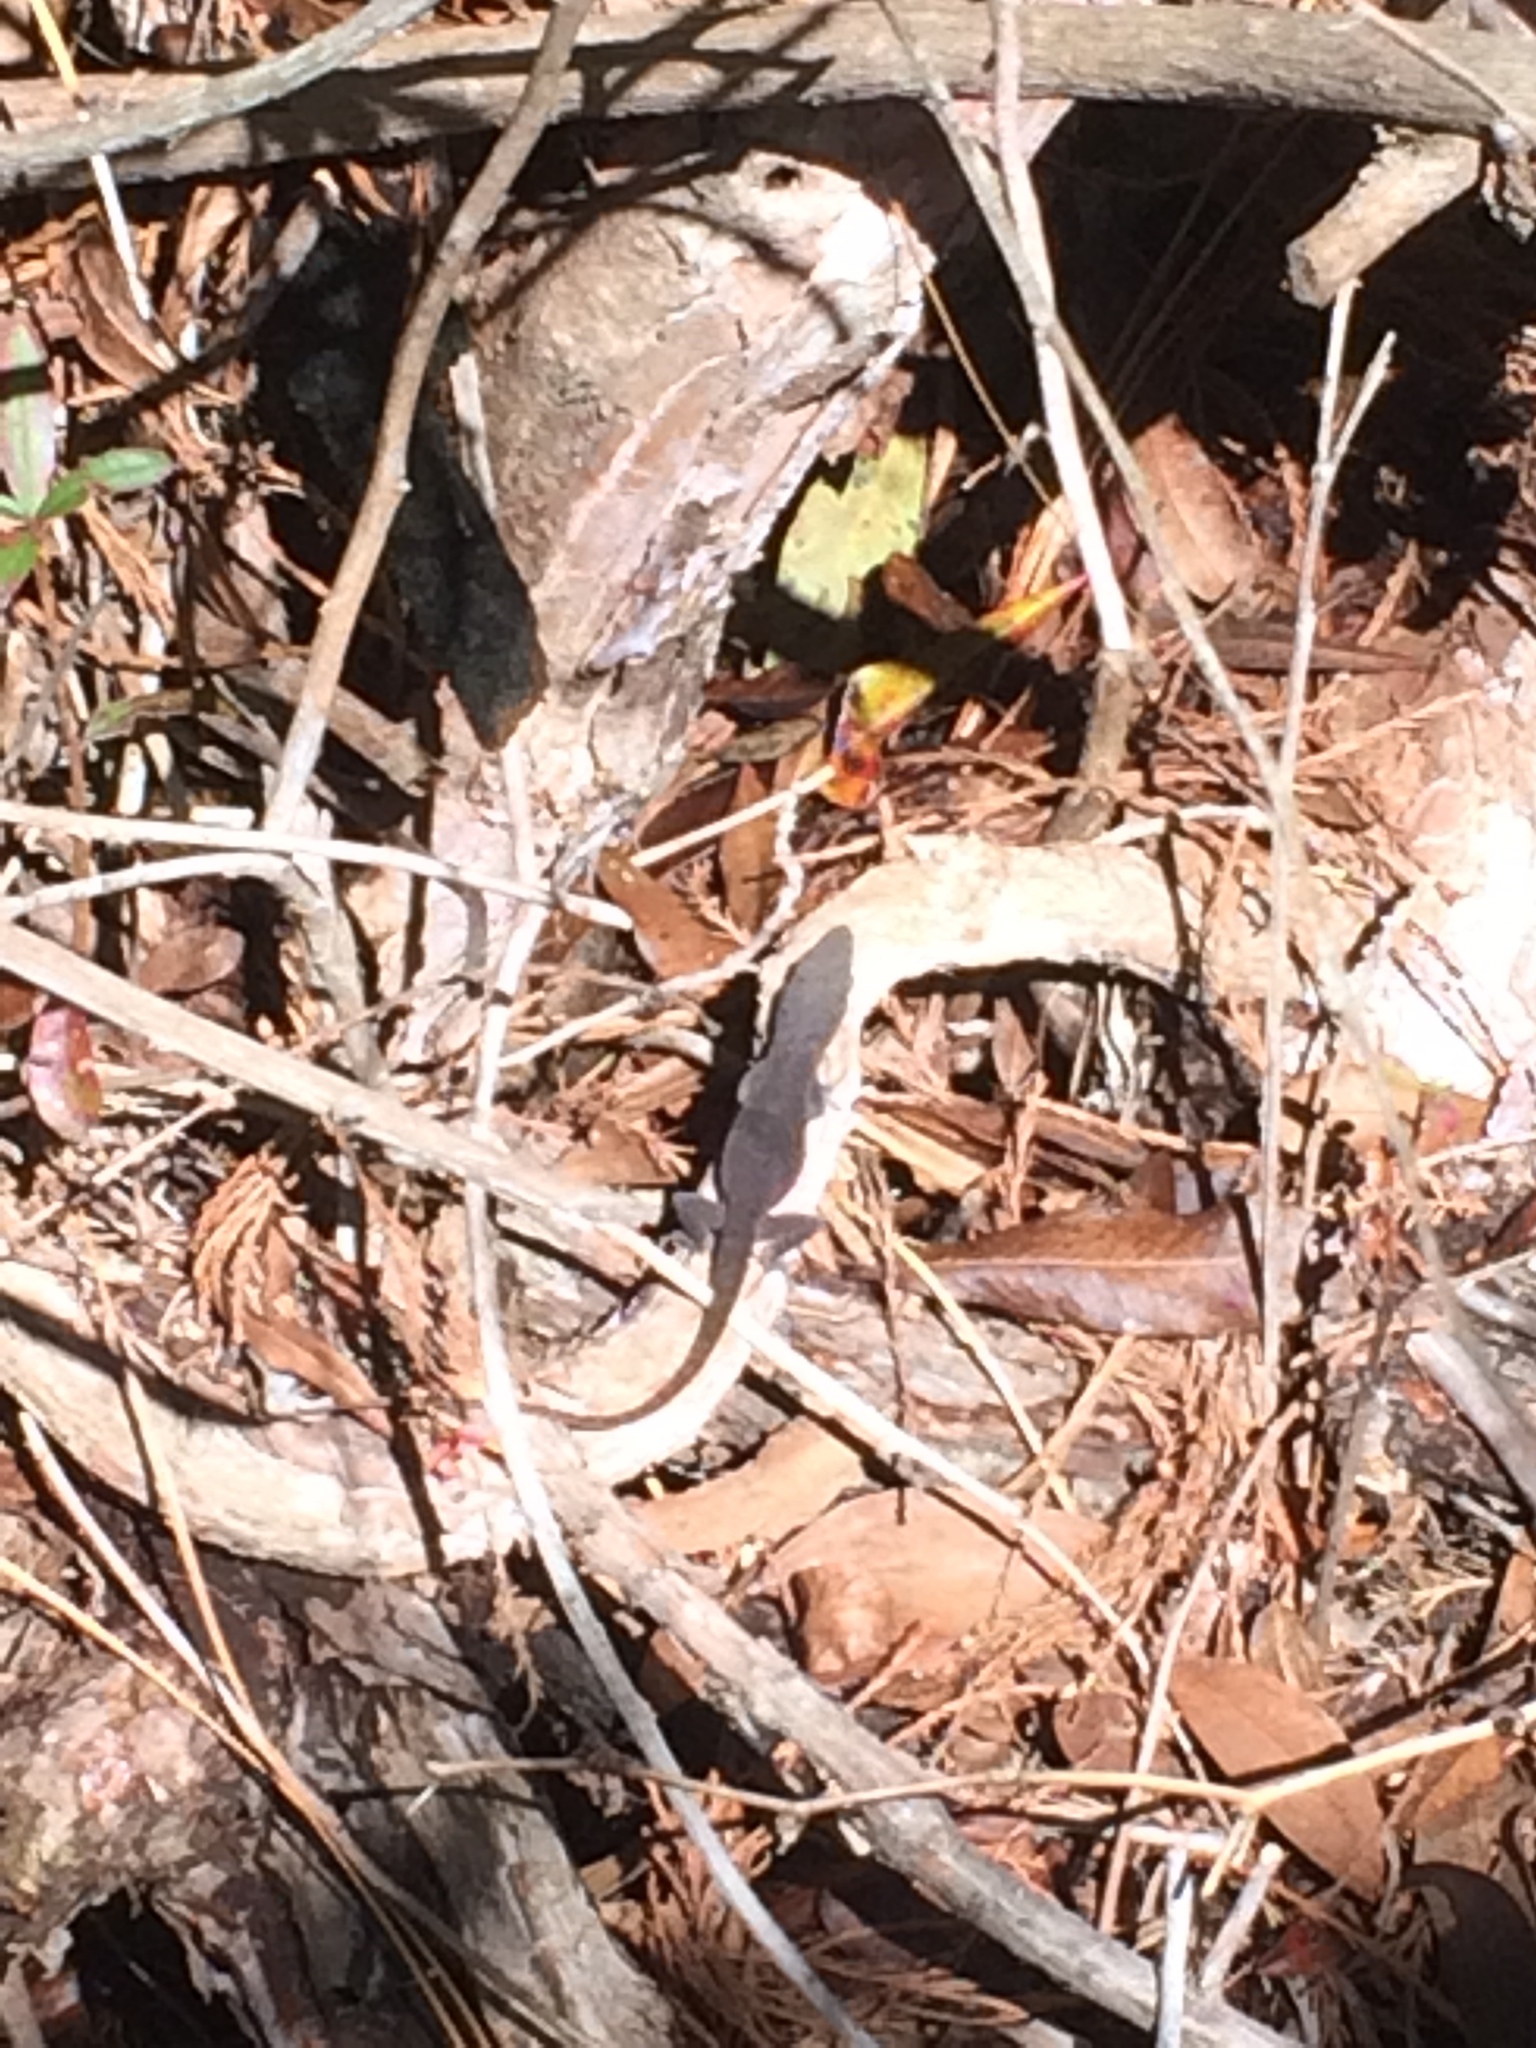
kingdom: Animalia
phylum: Chordata
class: Squamata
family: Dactyloidae
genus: Anolis
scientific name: Anolis carolinensis
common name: Green anole
